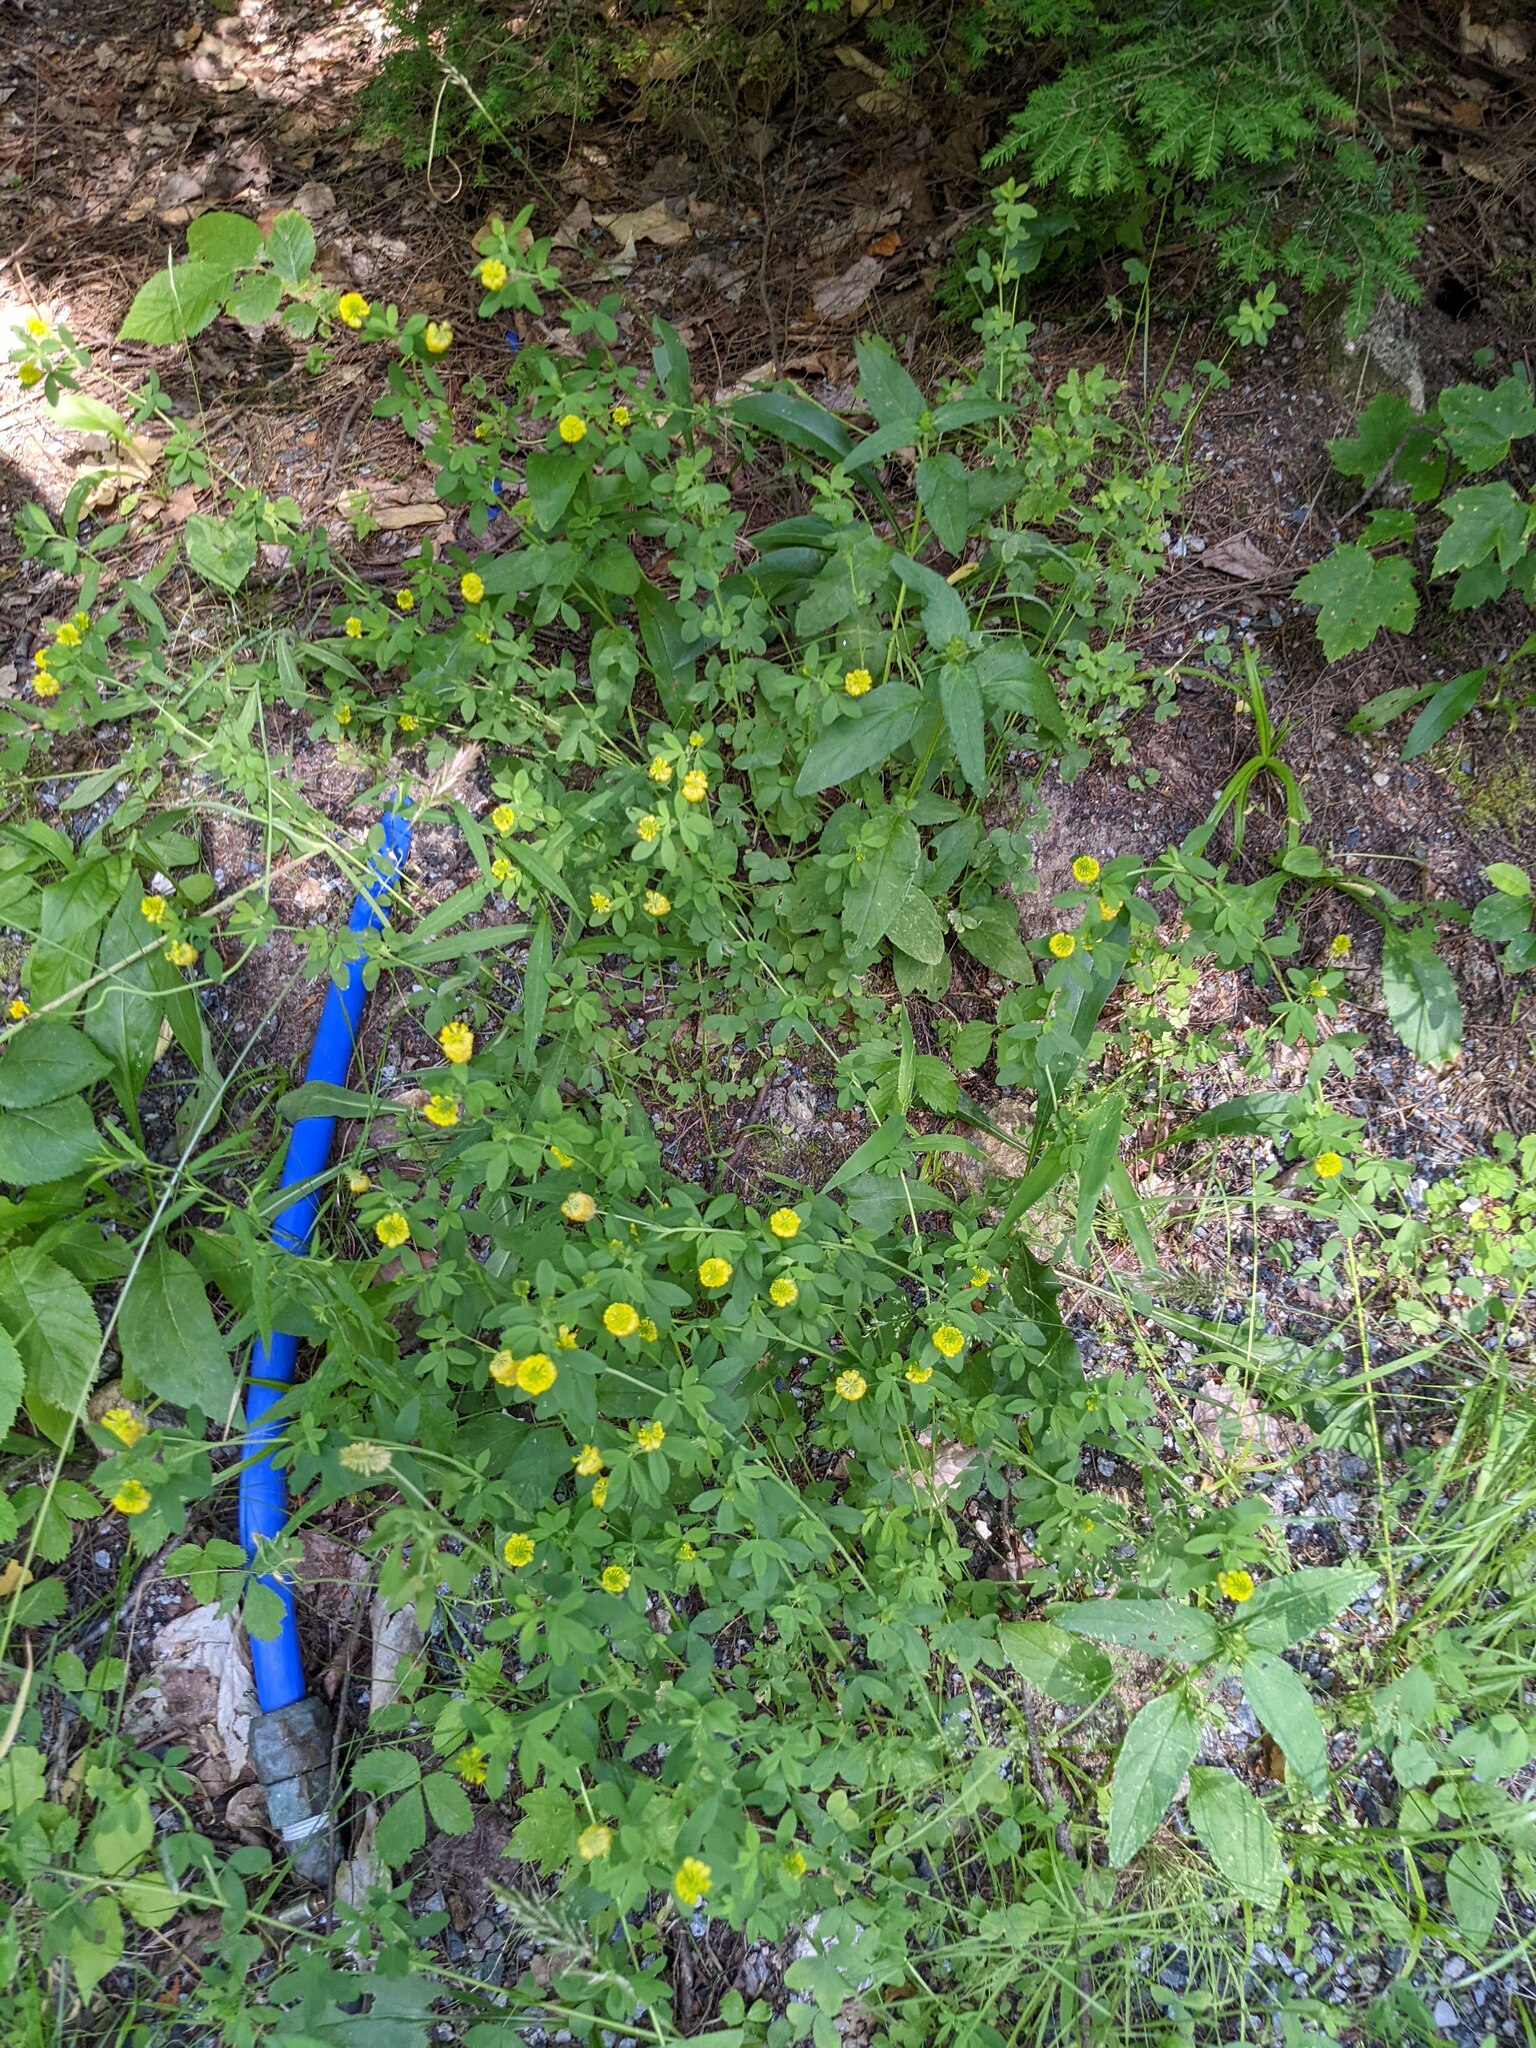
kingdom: Plantae
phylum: Tracheophyta
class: Magnoliopsida
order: Fabales
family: Fabaceae
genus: Trifolium
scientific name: Trifolium aureum
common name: Golden clover
